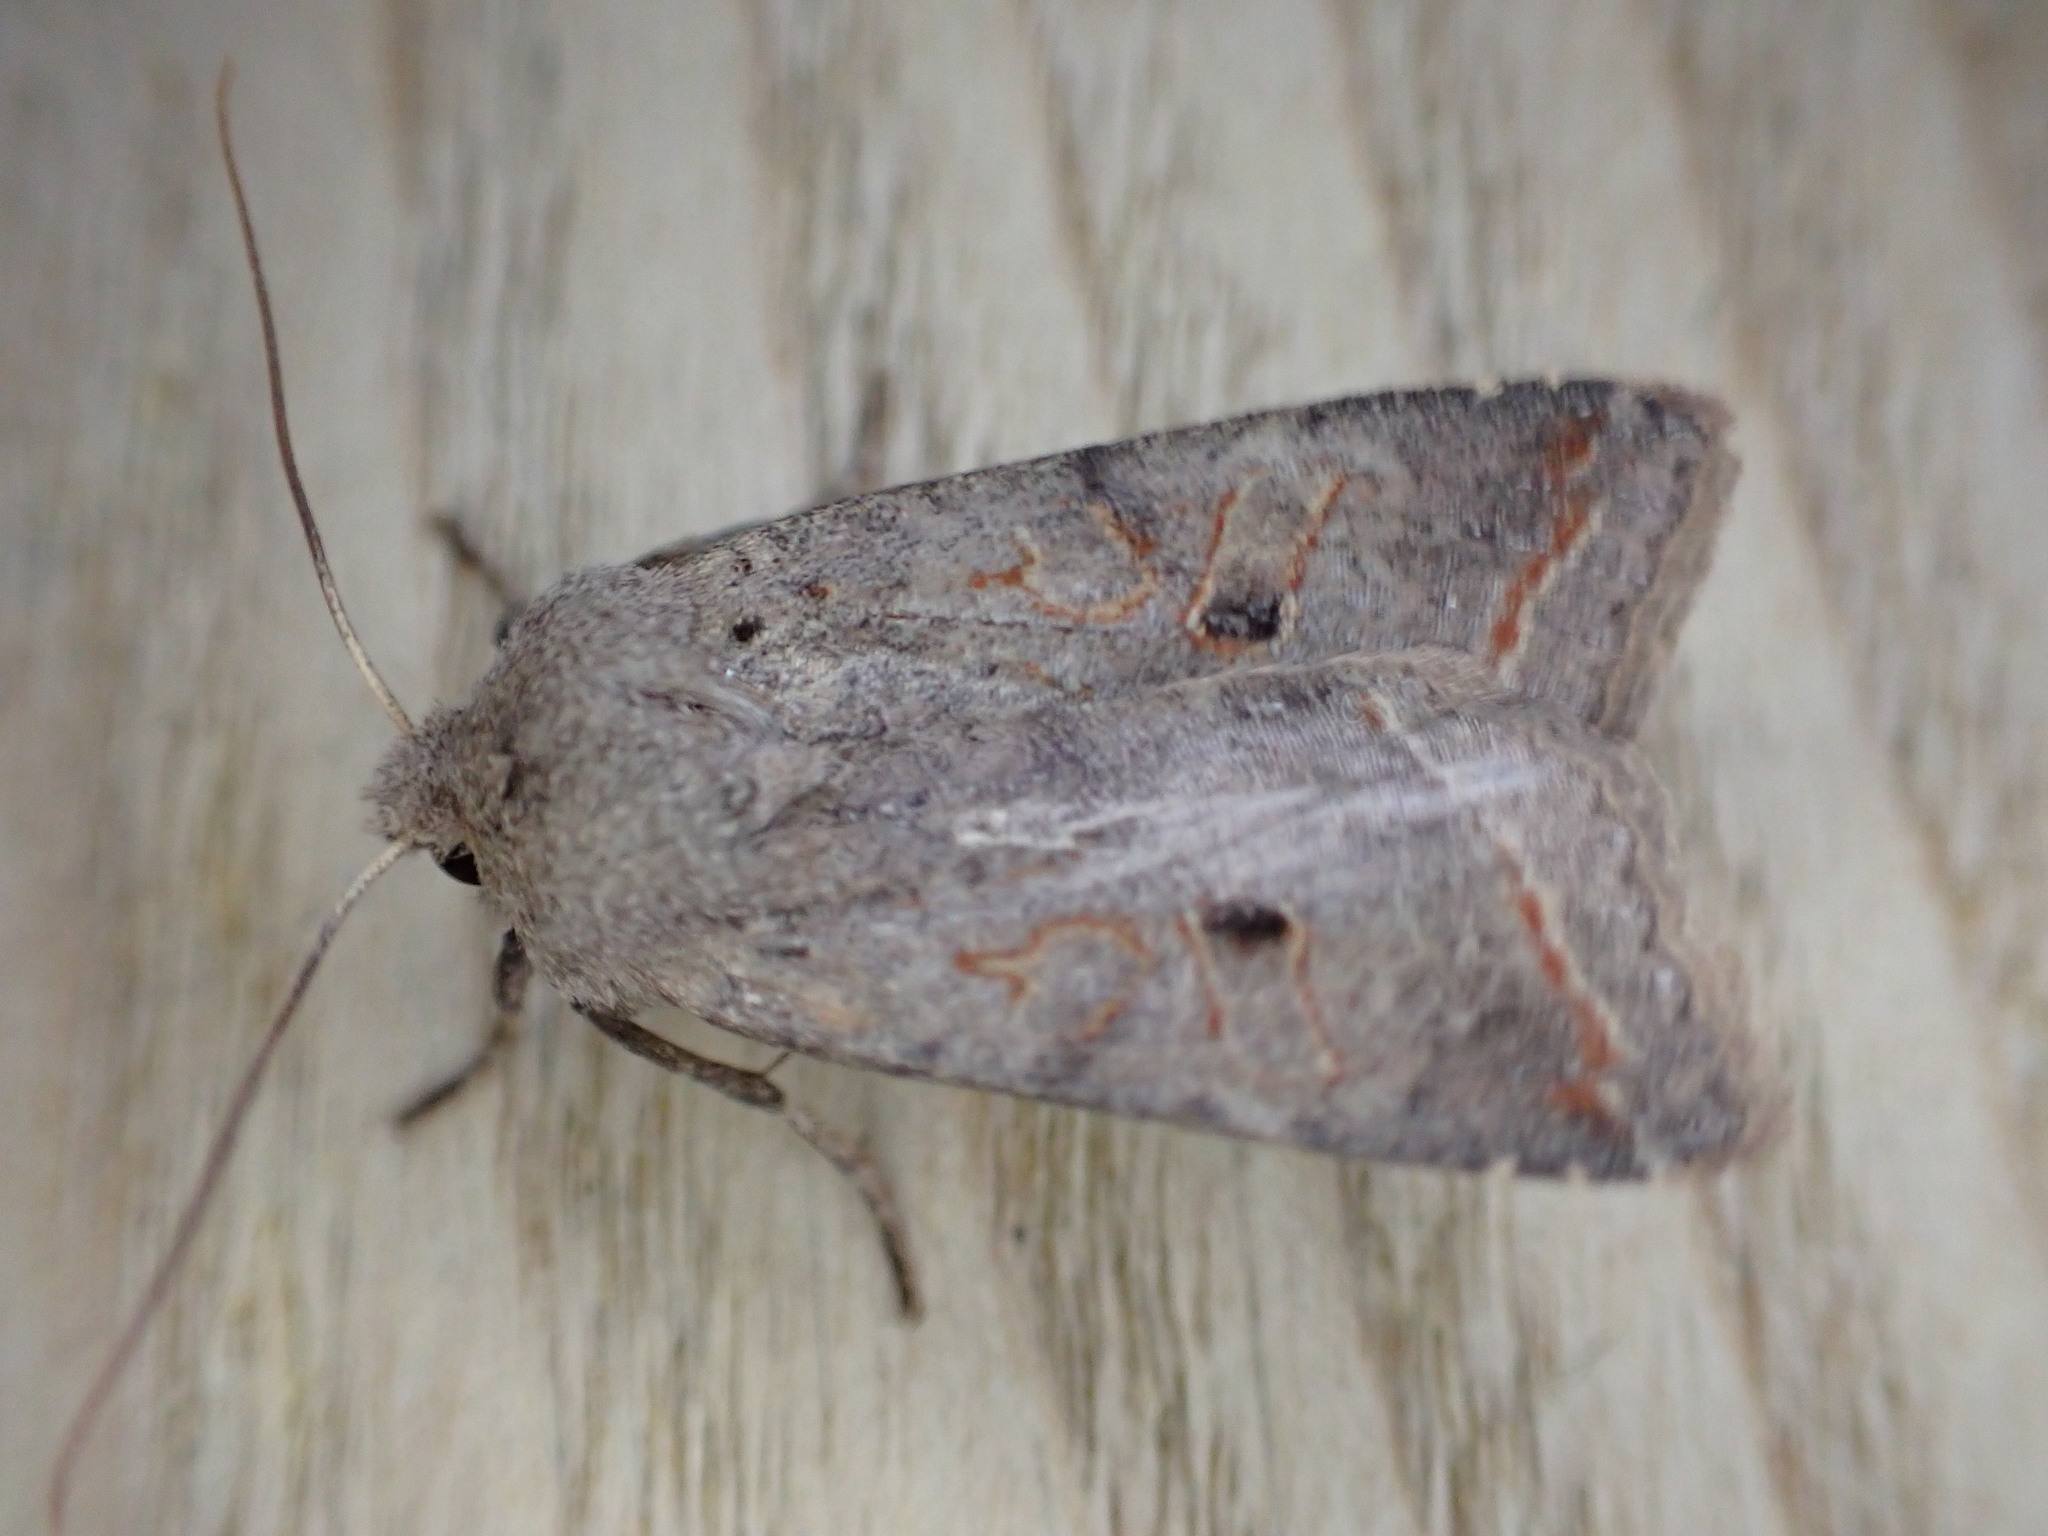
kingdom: Animalia
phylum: Arthropoda
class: Insecta
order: Lepidoptera
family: Noctuidae
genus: Agrochola
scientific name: Agrochola lota
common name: Red-line quaker
